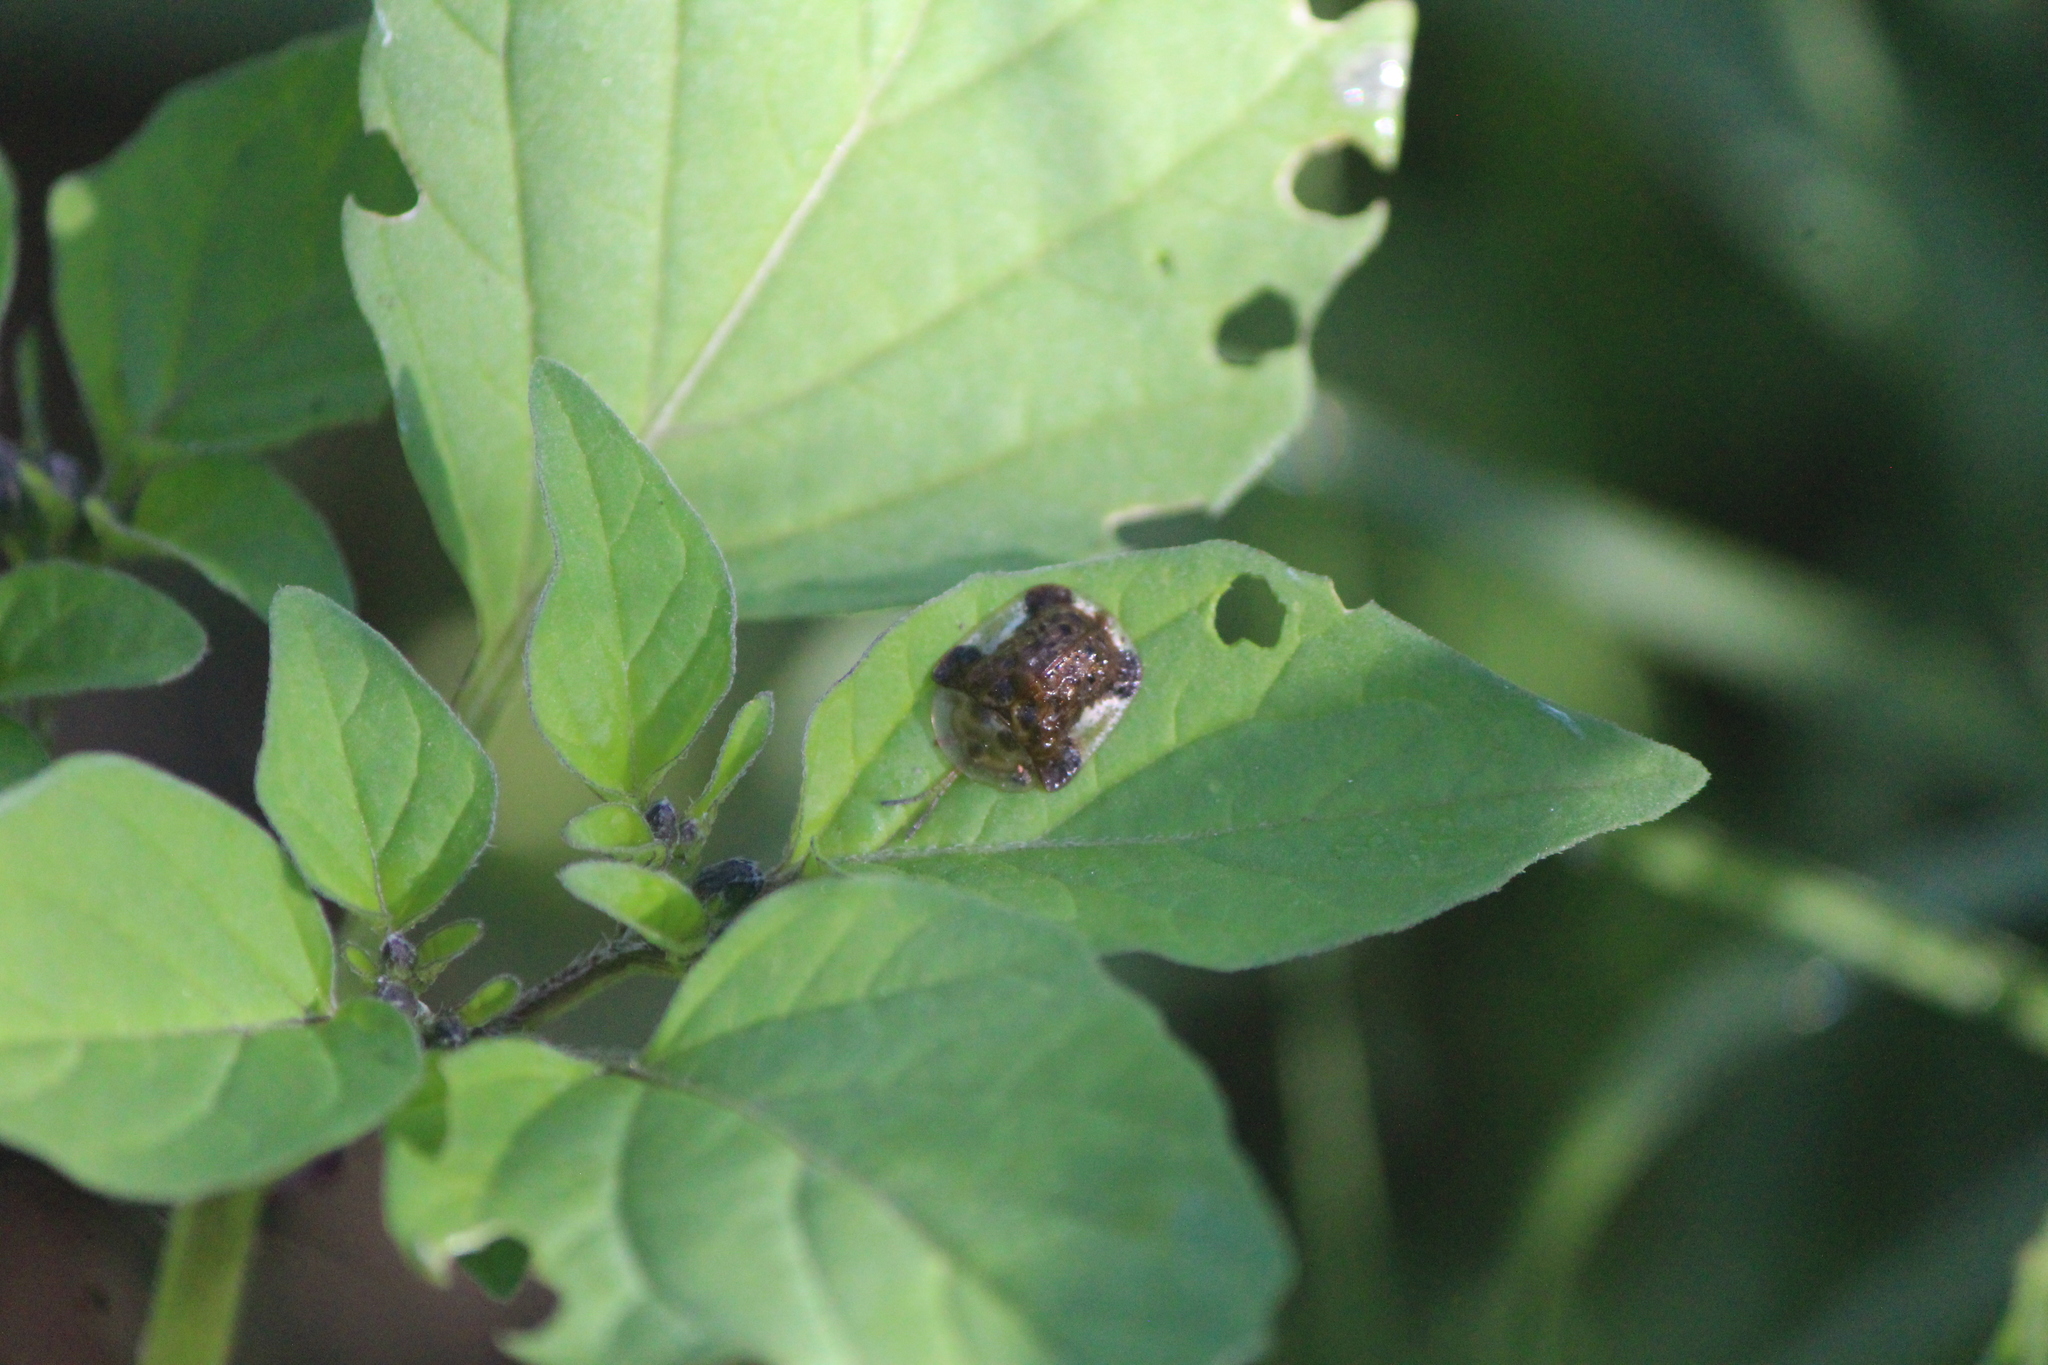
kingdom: Animalia
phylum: Arthropoda
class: Insecta
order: Coleoptera
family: Chrysomelidae
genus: Helocassis
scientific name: Helocassis clavata
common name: Clavate tortoise beetle
